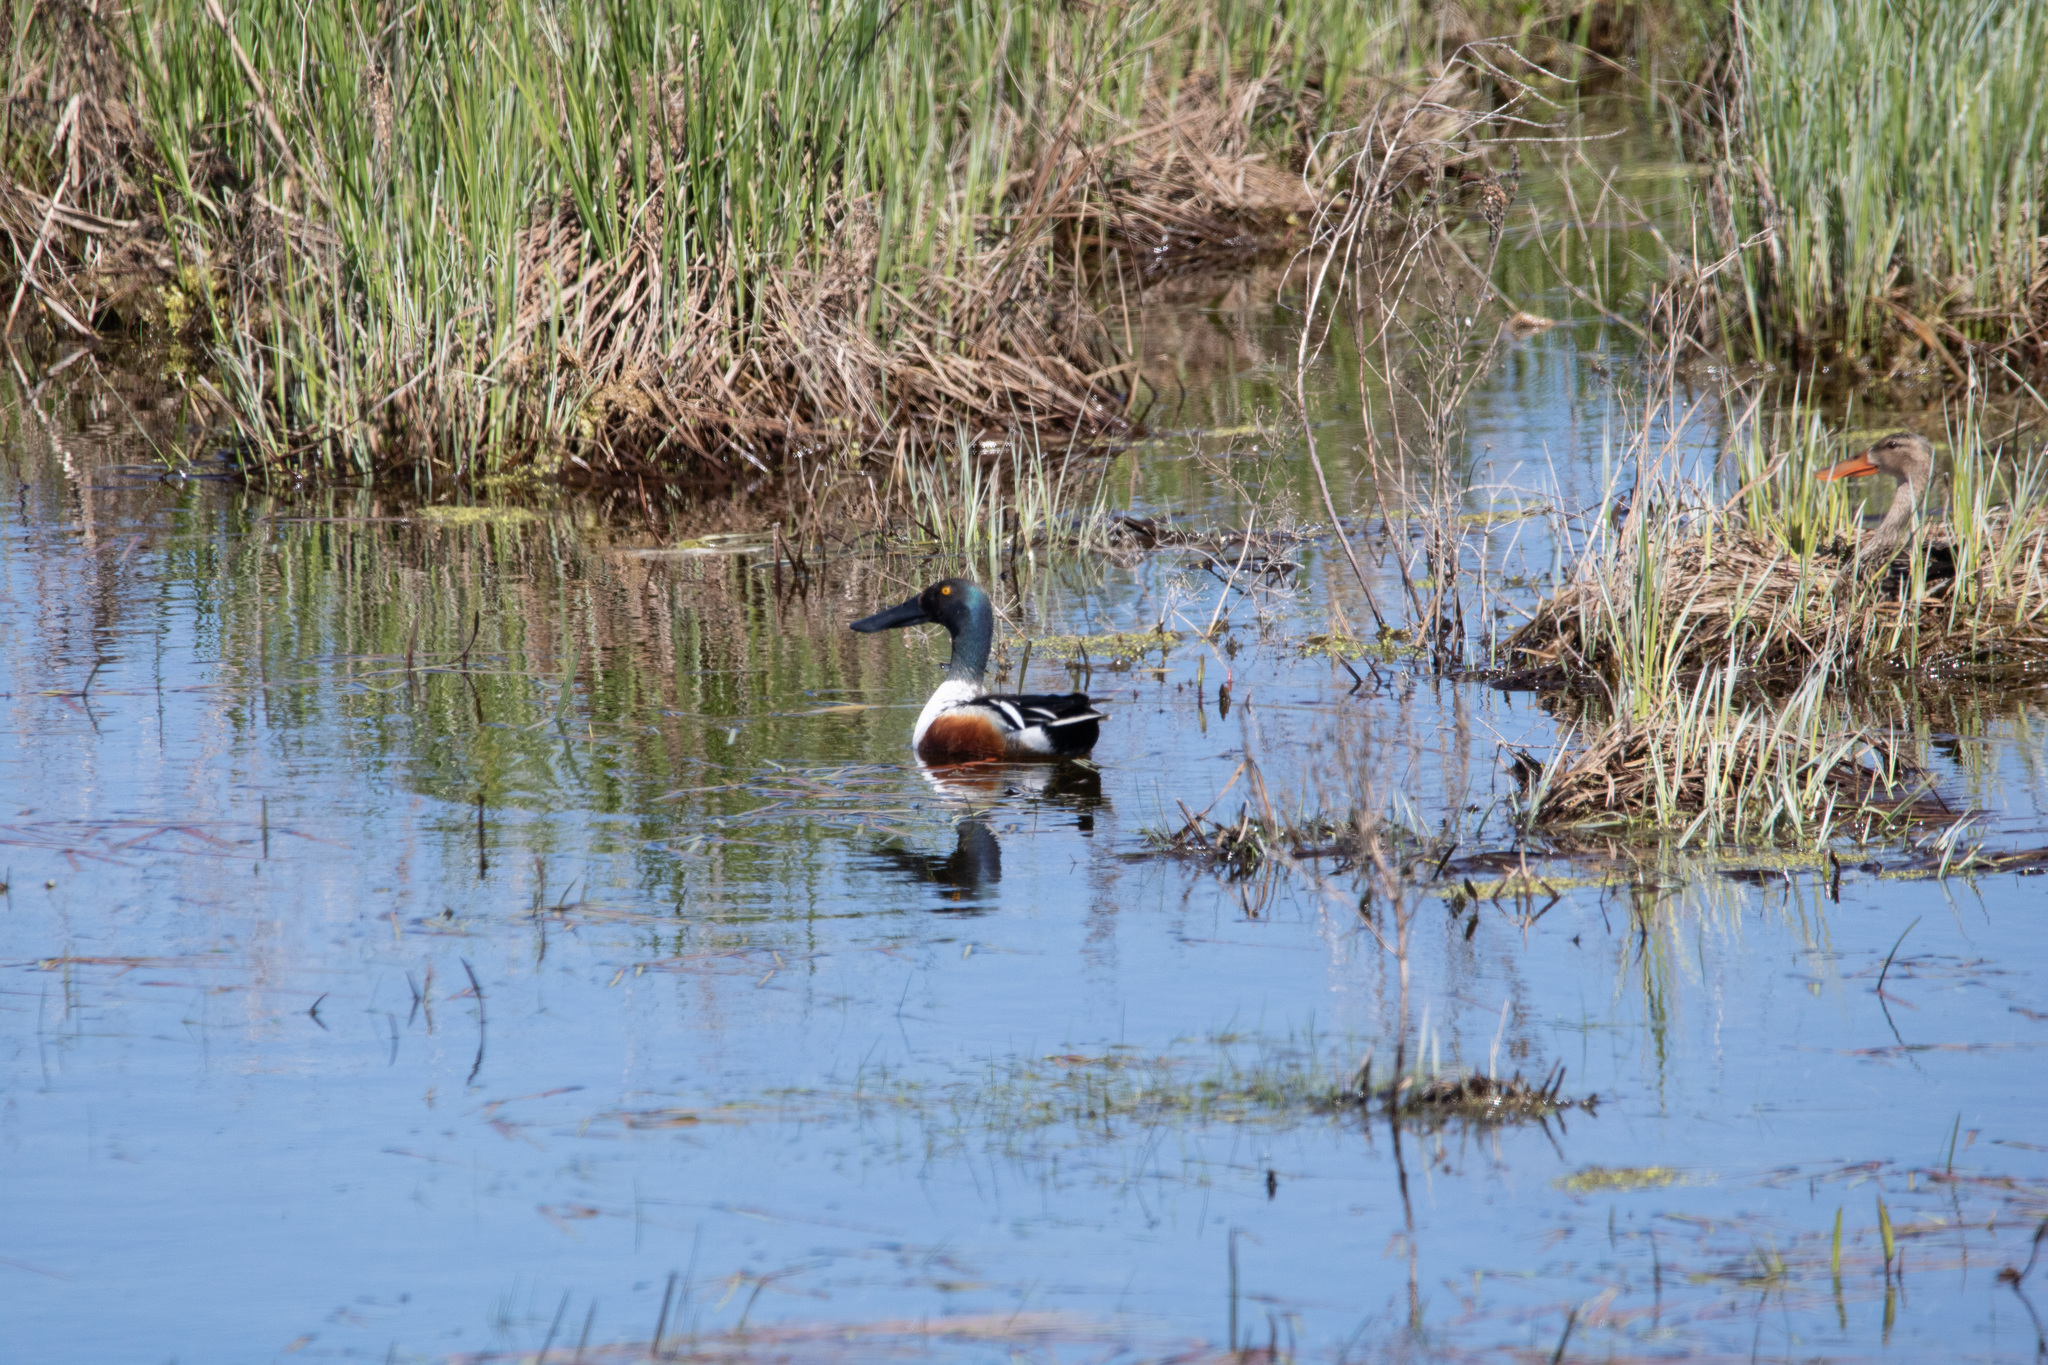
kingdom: Animalia
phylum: Chordata
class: Aves
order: Anseriformes
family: Anatidae
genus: Spatula
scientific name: Spatula clypeata
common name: Northern shoveler
